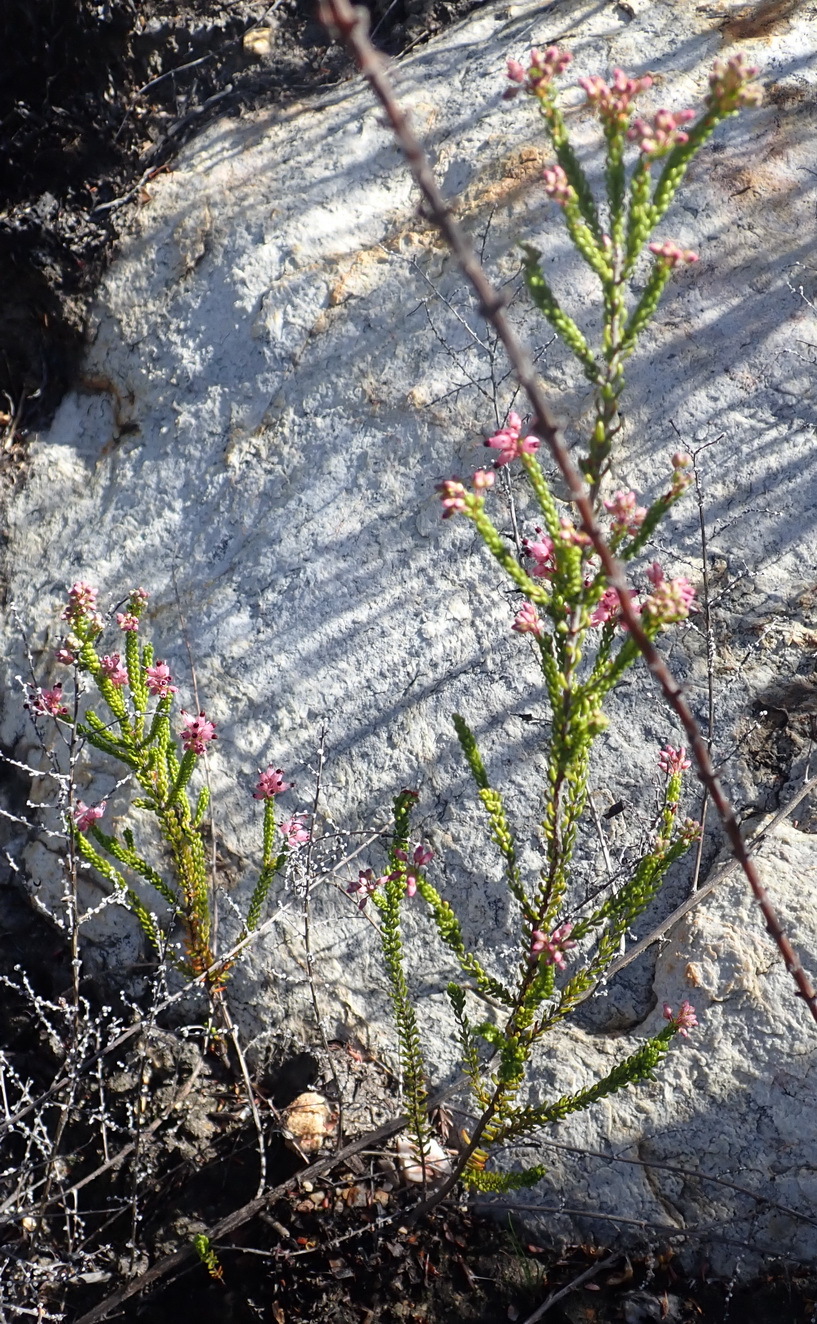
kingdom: Plantae
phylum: Tracheophyta
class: Magnoliopsida
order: Ericales
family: Ericaceae
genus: Erica
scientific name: Erica petraea
